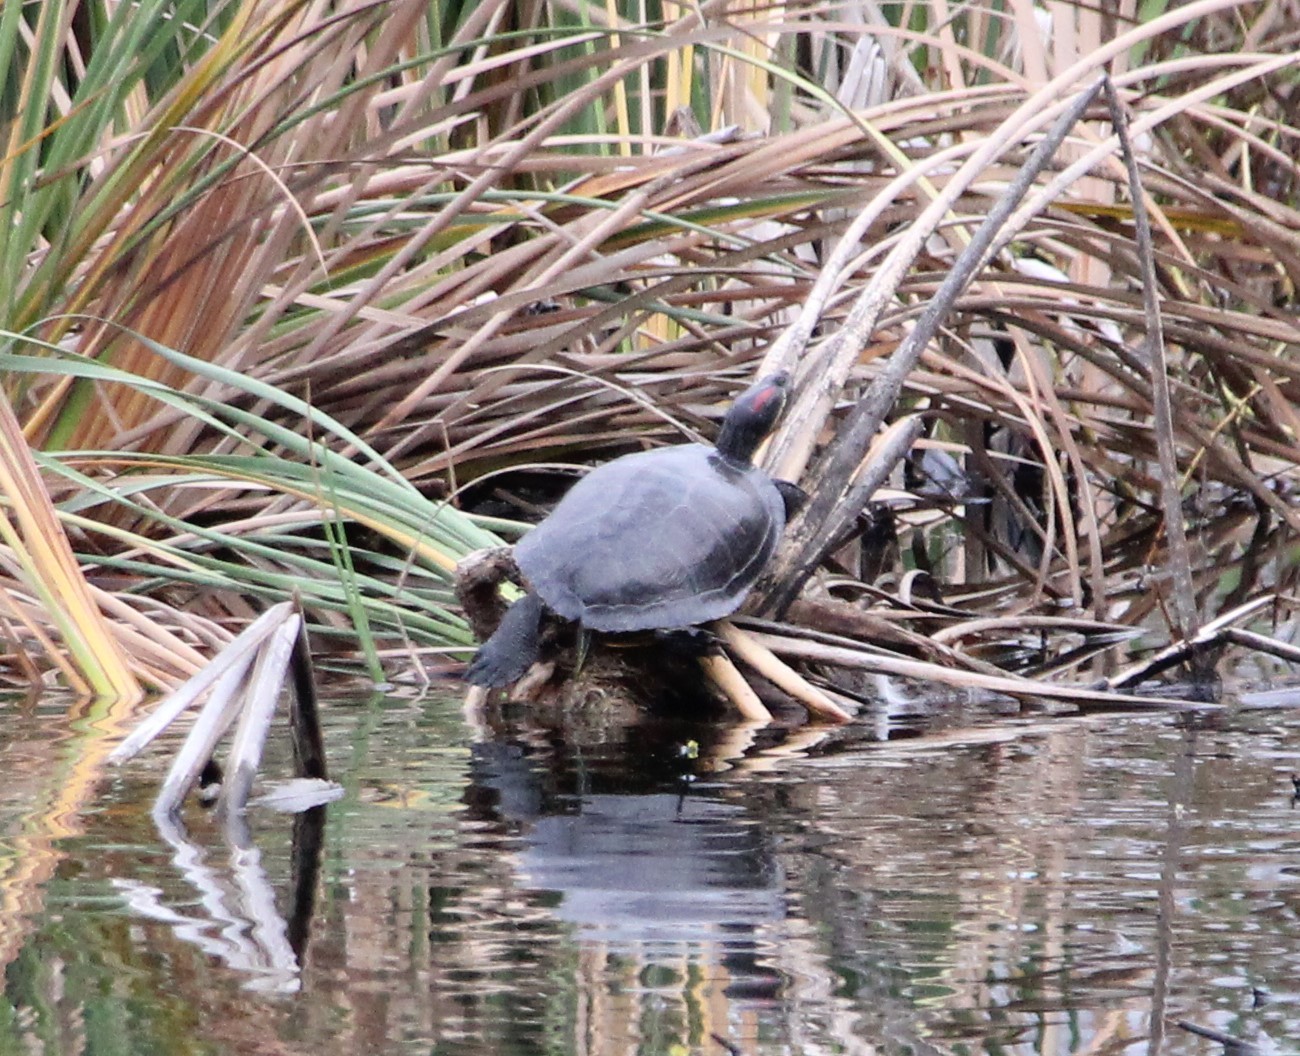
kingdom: Animalia
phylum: Chordata
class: Testudines
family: Emydidae
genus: Trachemys
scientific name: Trachemys scripta
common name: Slider
